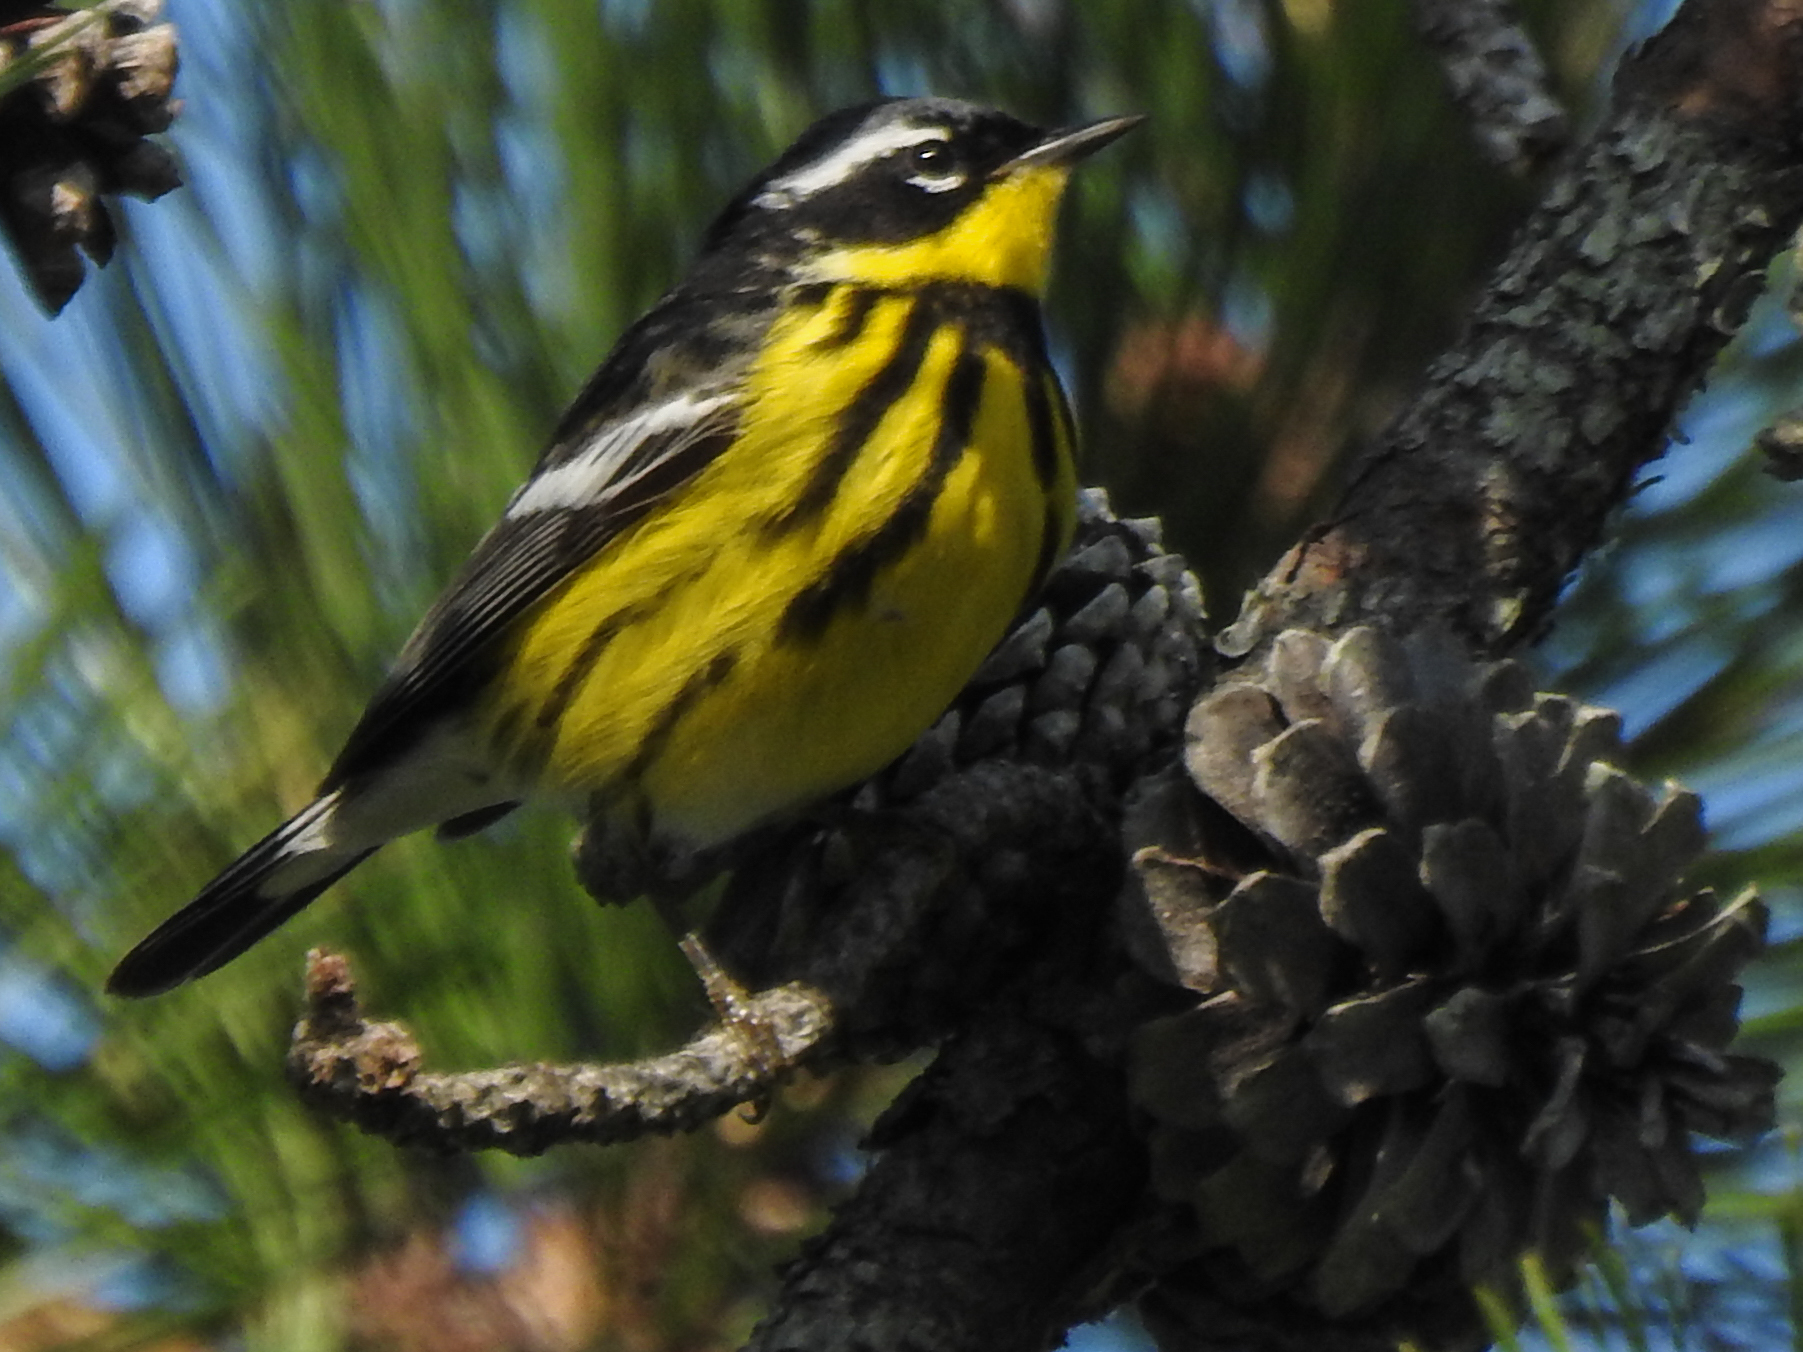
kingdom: Animalia
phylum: Chordata
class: Aves
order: Passeriformes
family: Parulidae
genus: Setophaga
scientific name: Setophaga magnolia
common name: Magnolia warbler
